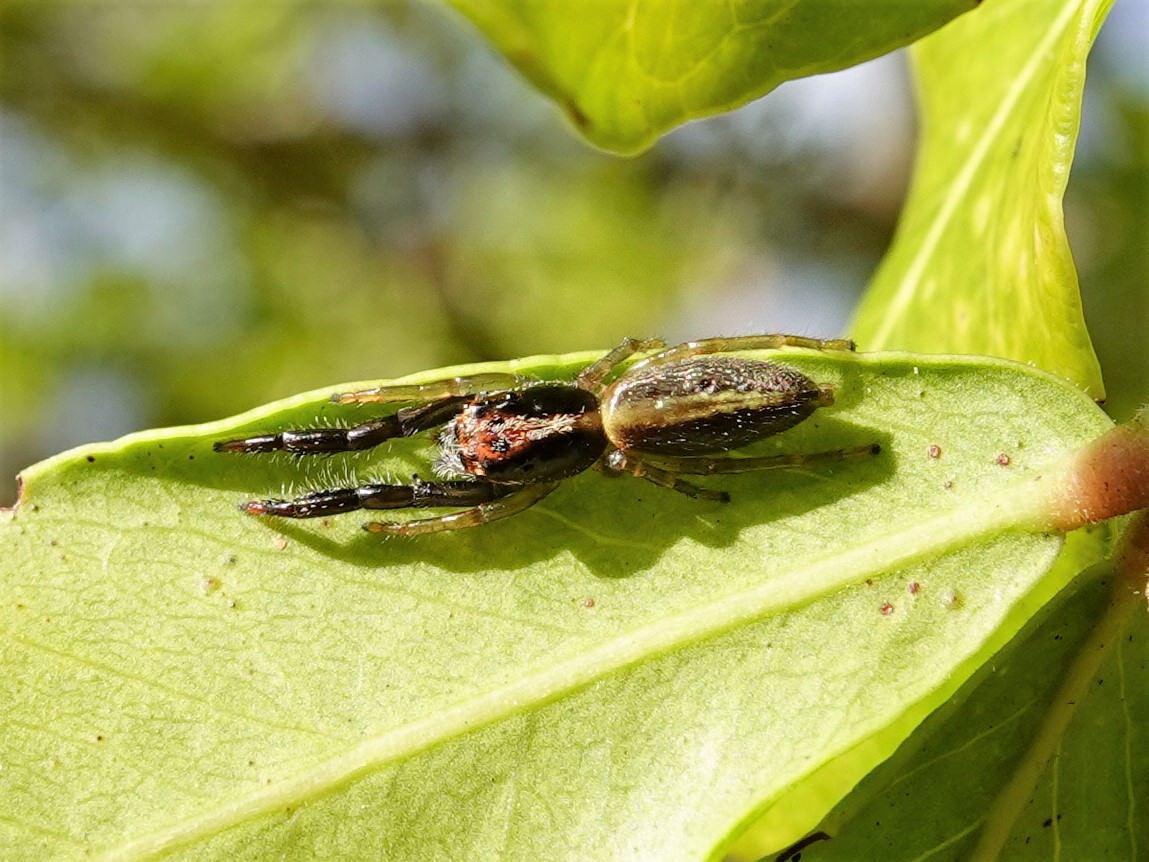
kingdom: Animalia
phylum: Arthropoda
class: Arachnida
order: Araneae
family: Salticidae
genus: Trite
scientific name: Trite planiceps
